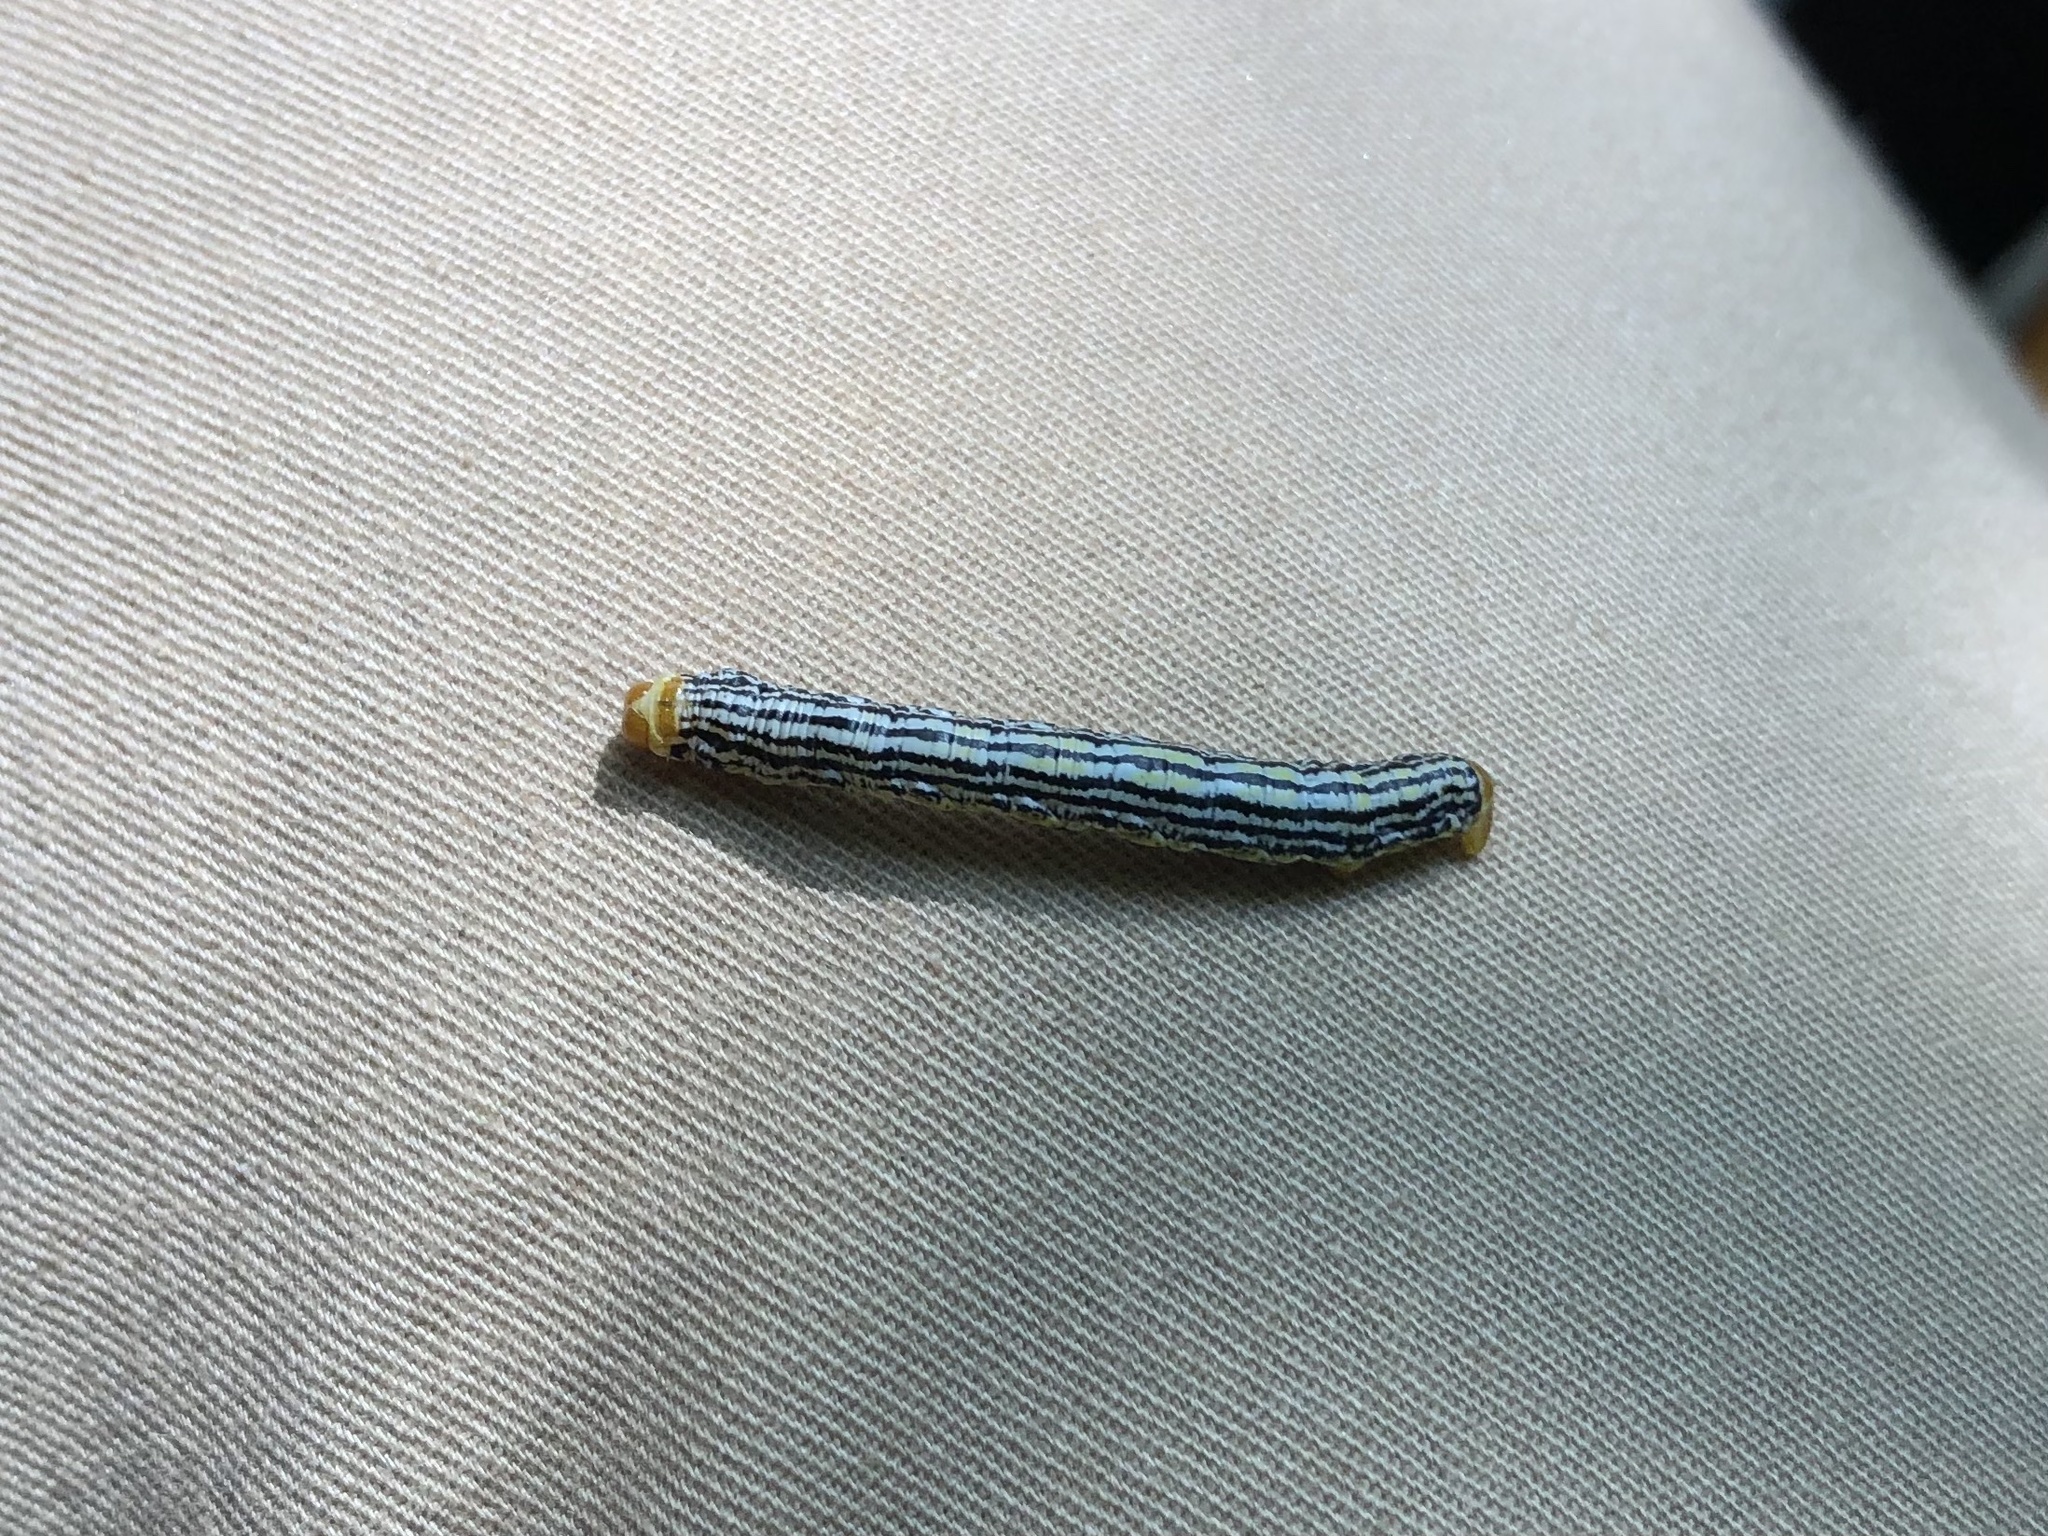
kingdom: Animalia
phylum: Arthropoda
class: Insecta
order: Lepidoptera
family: Geometridae
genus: Abraxas
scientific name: Abraxas pantaria
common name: Light magpie
